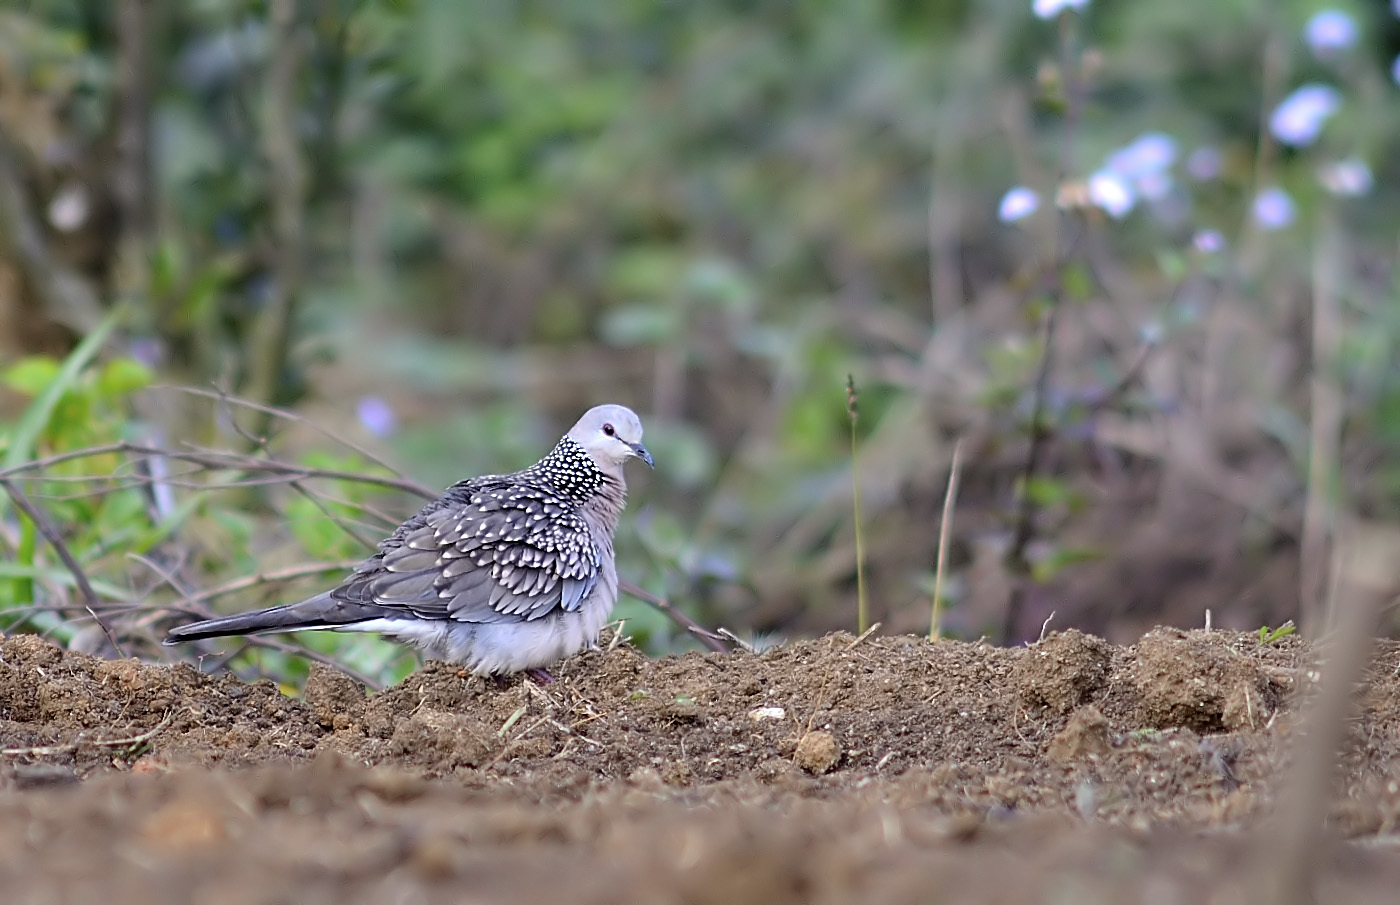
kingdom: Animalia
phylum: Chordata
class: Aves
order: Columbiformes
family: Columbidae
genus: Spilopelia
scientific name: Spilopelia chinensis
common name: Spotted dove
